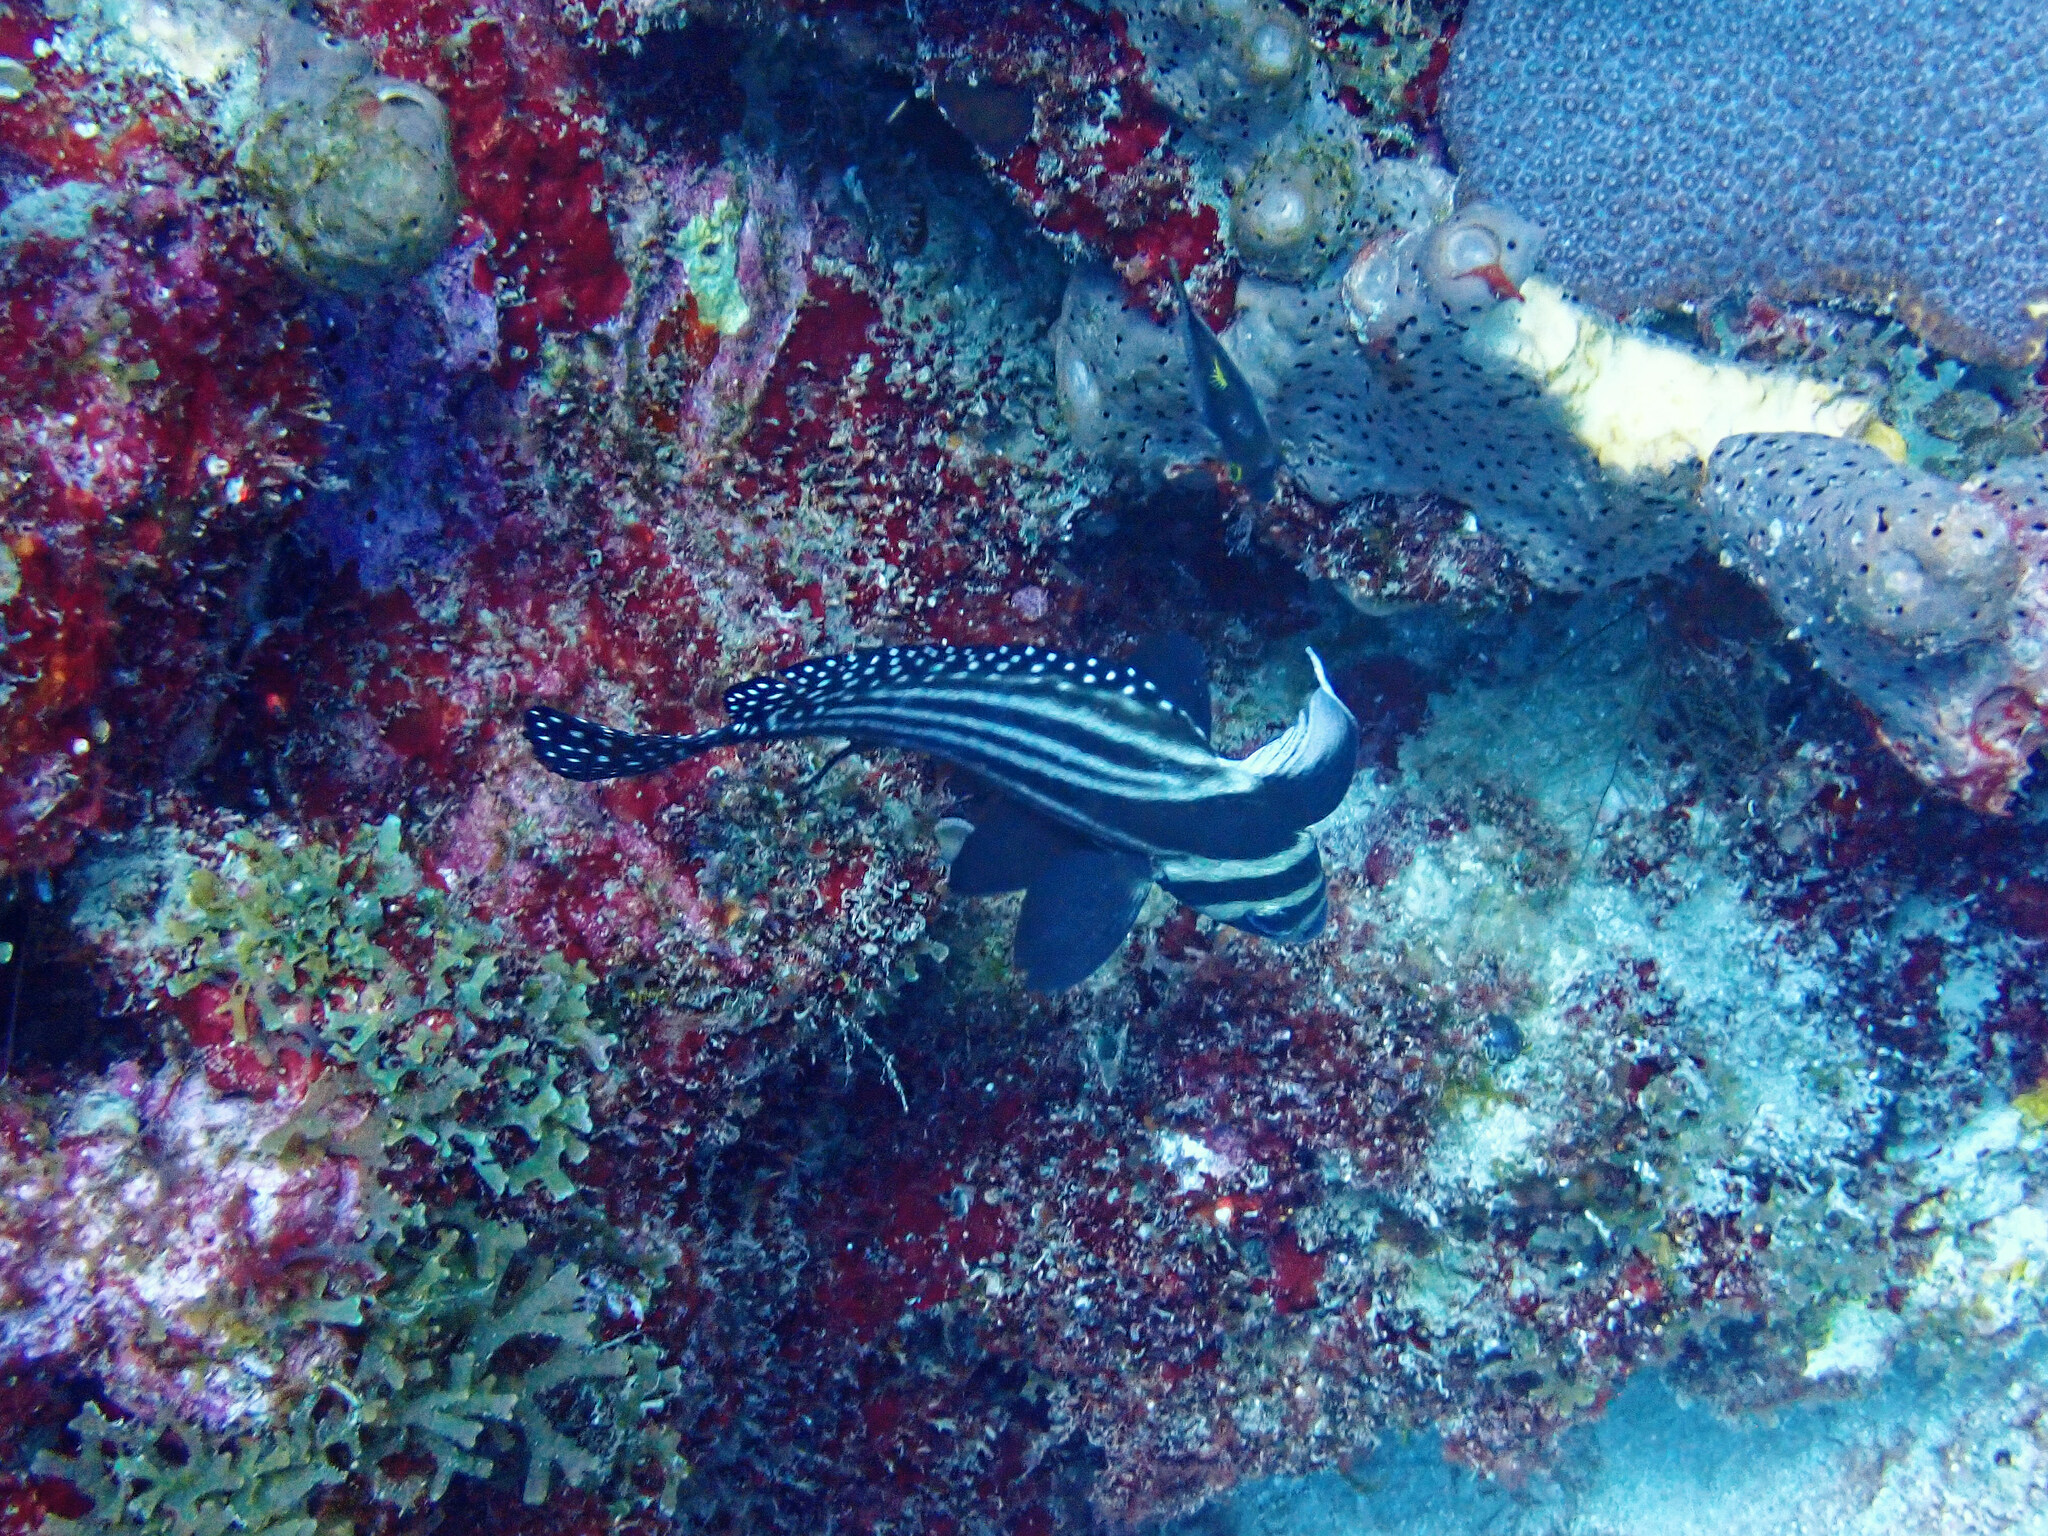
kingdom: Animalia
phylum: Chordata
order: Perciformes
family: Sciaenidae
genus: Equetus
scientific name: Equetus punctatus
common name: Spotted drum
